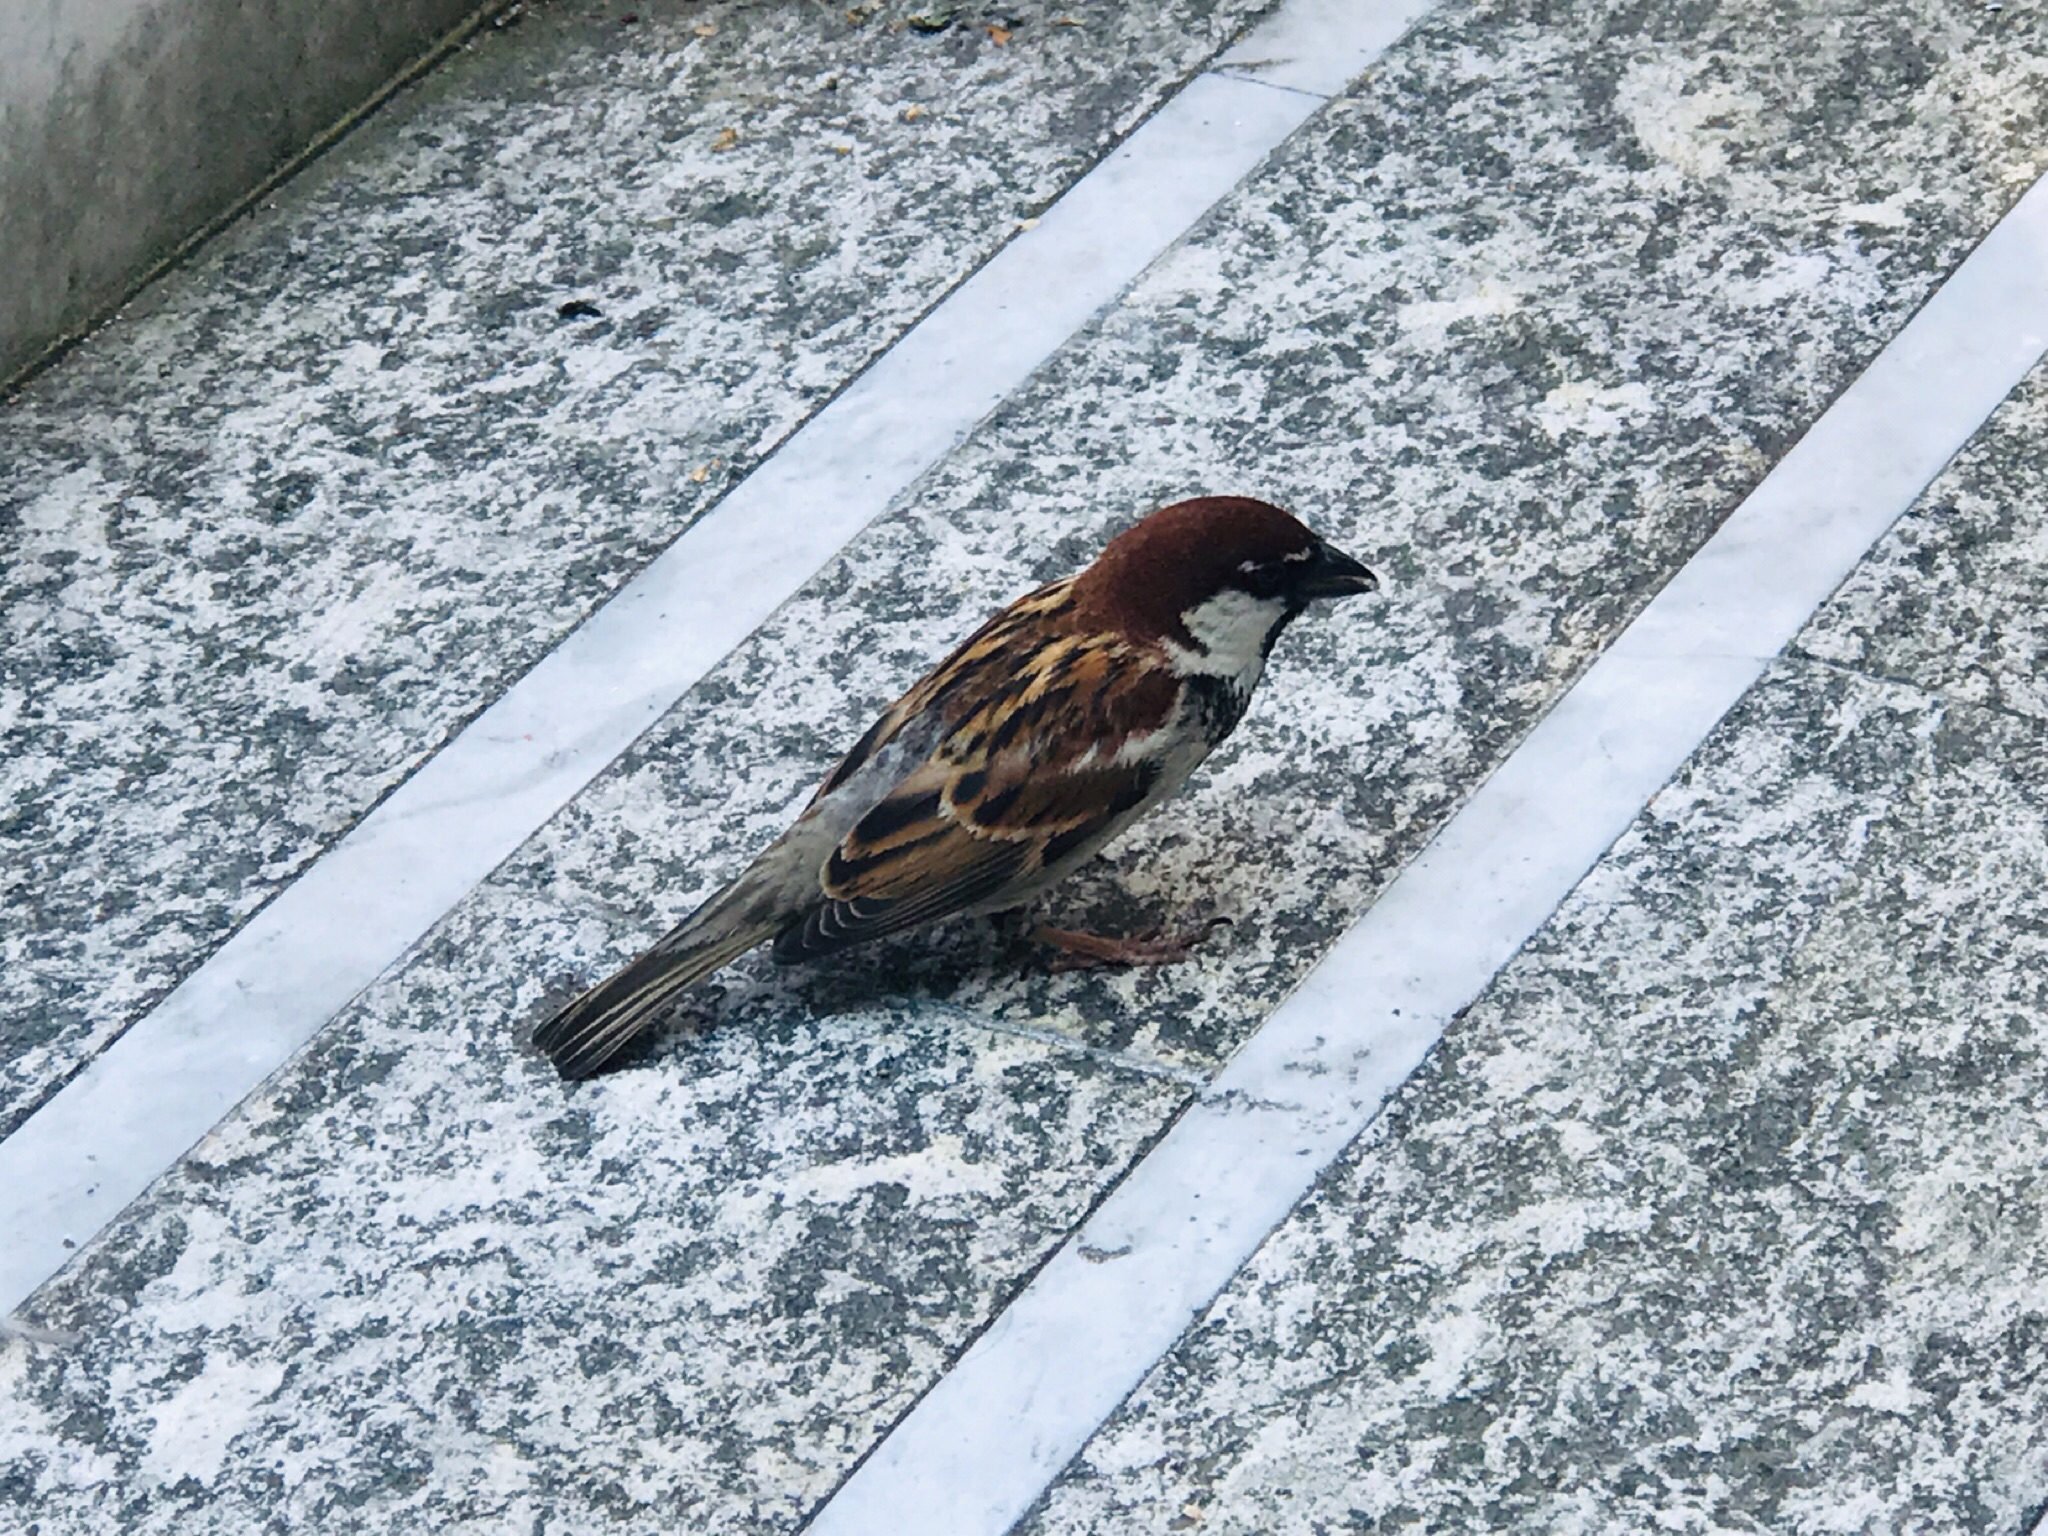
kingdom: Animalia
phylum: Chordata
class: Aves
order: Passeriformes
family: Passeridae
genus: Passer
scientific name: Passer italiae
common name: Italian sparrow
